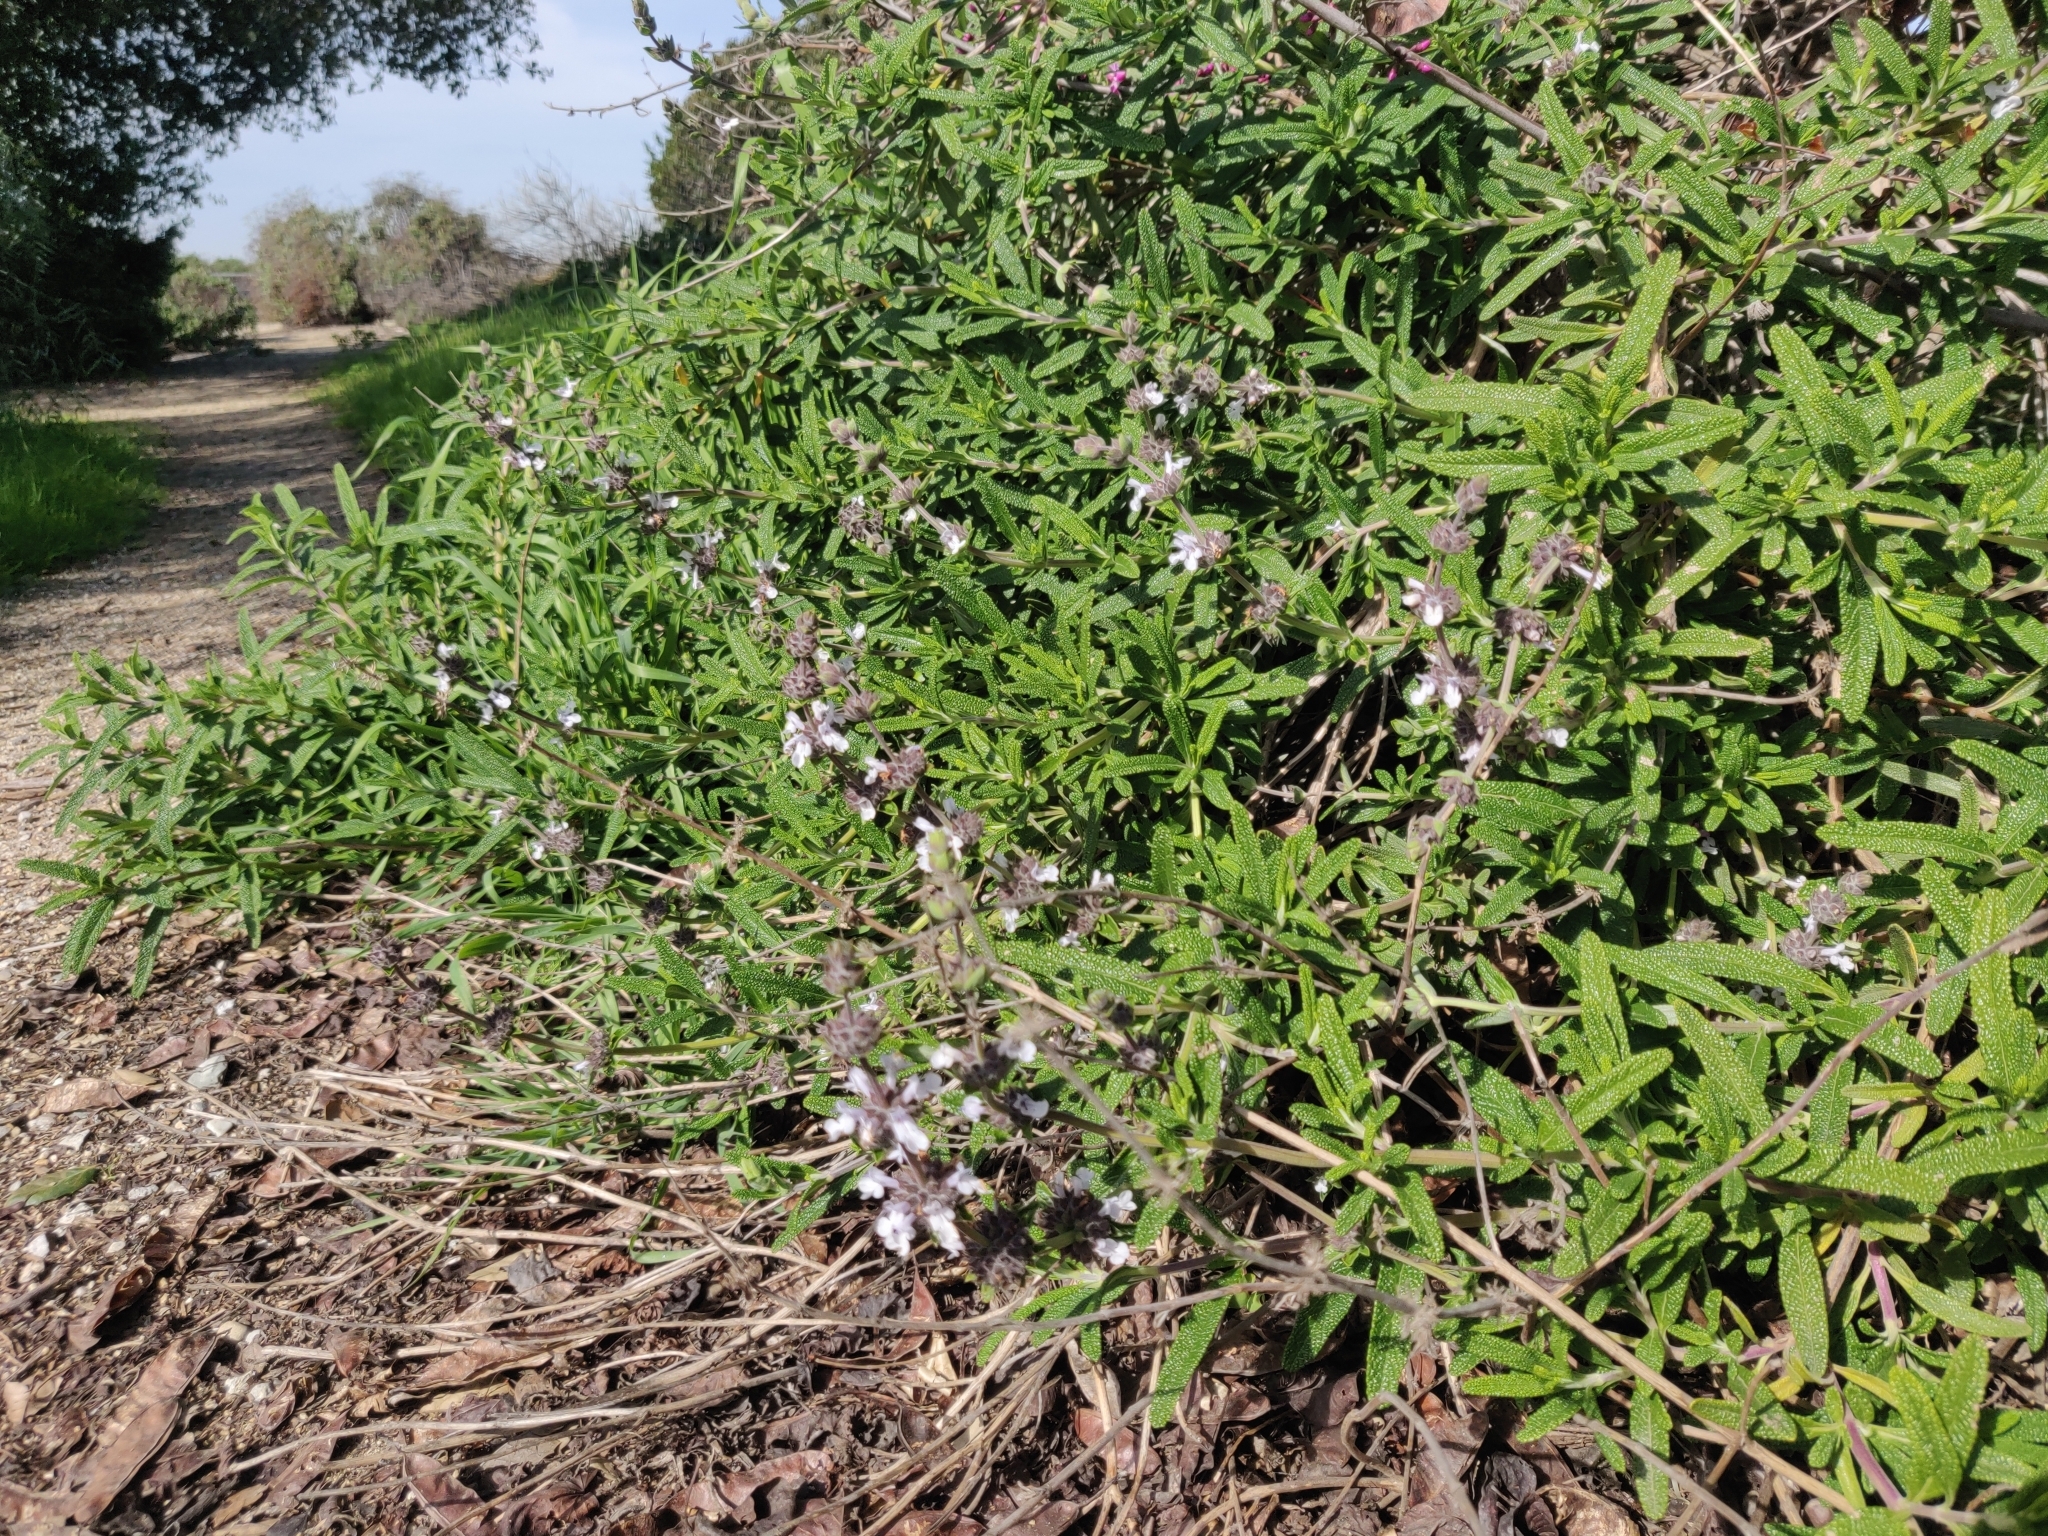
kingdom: Plantae
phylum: Tracheophyta
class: Magnoliopsida
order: Lamiales
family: Lamiaceae
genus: Salvia
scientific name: Salvia mellifera
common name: Black sage
